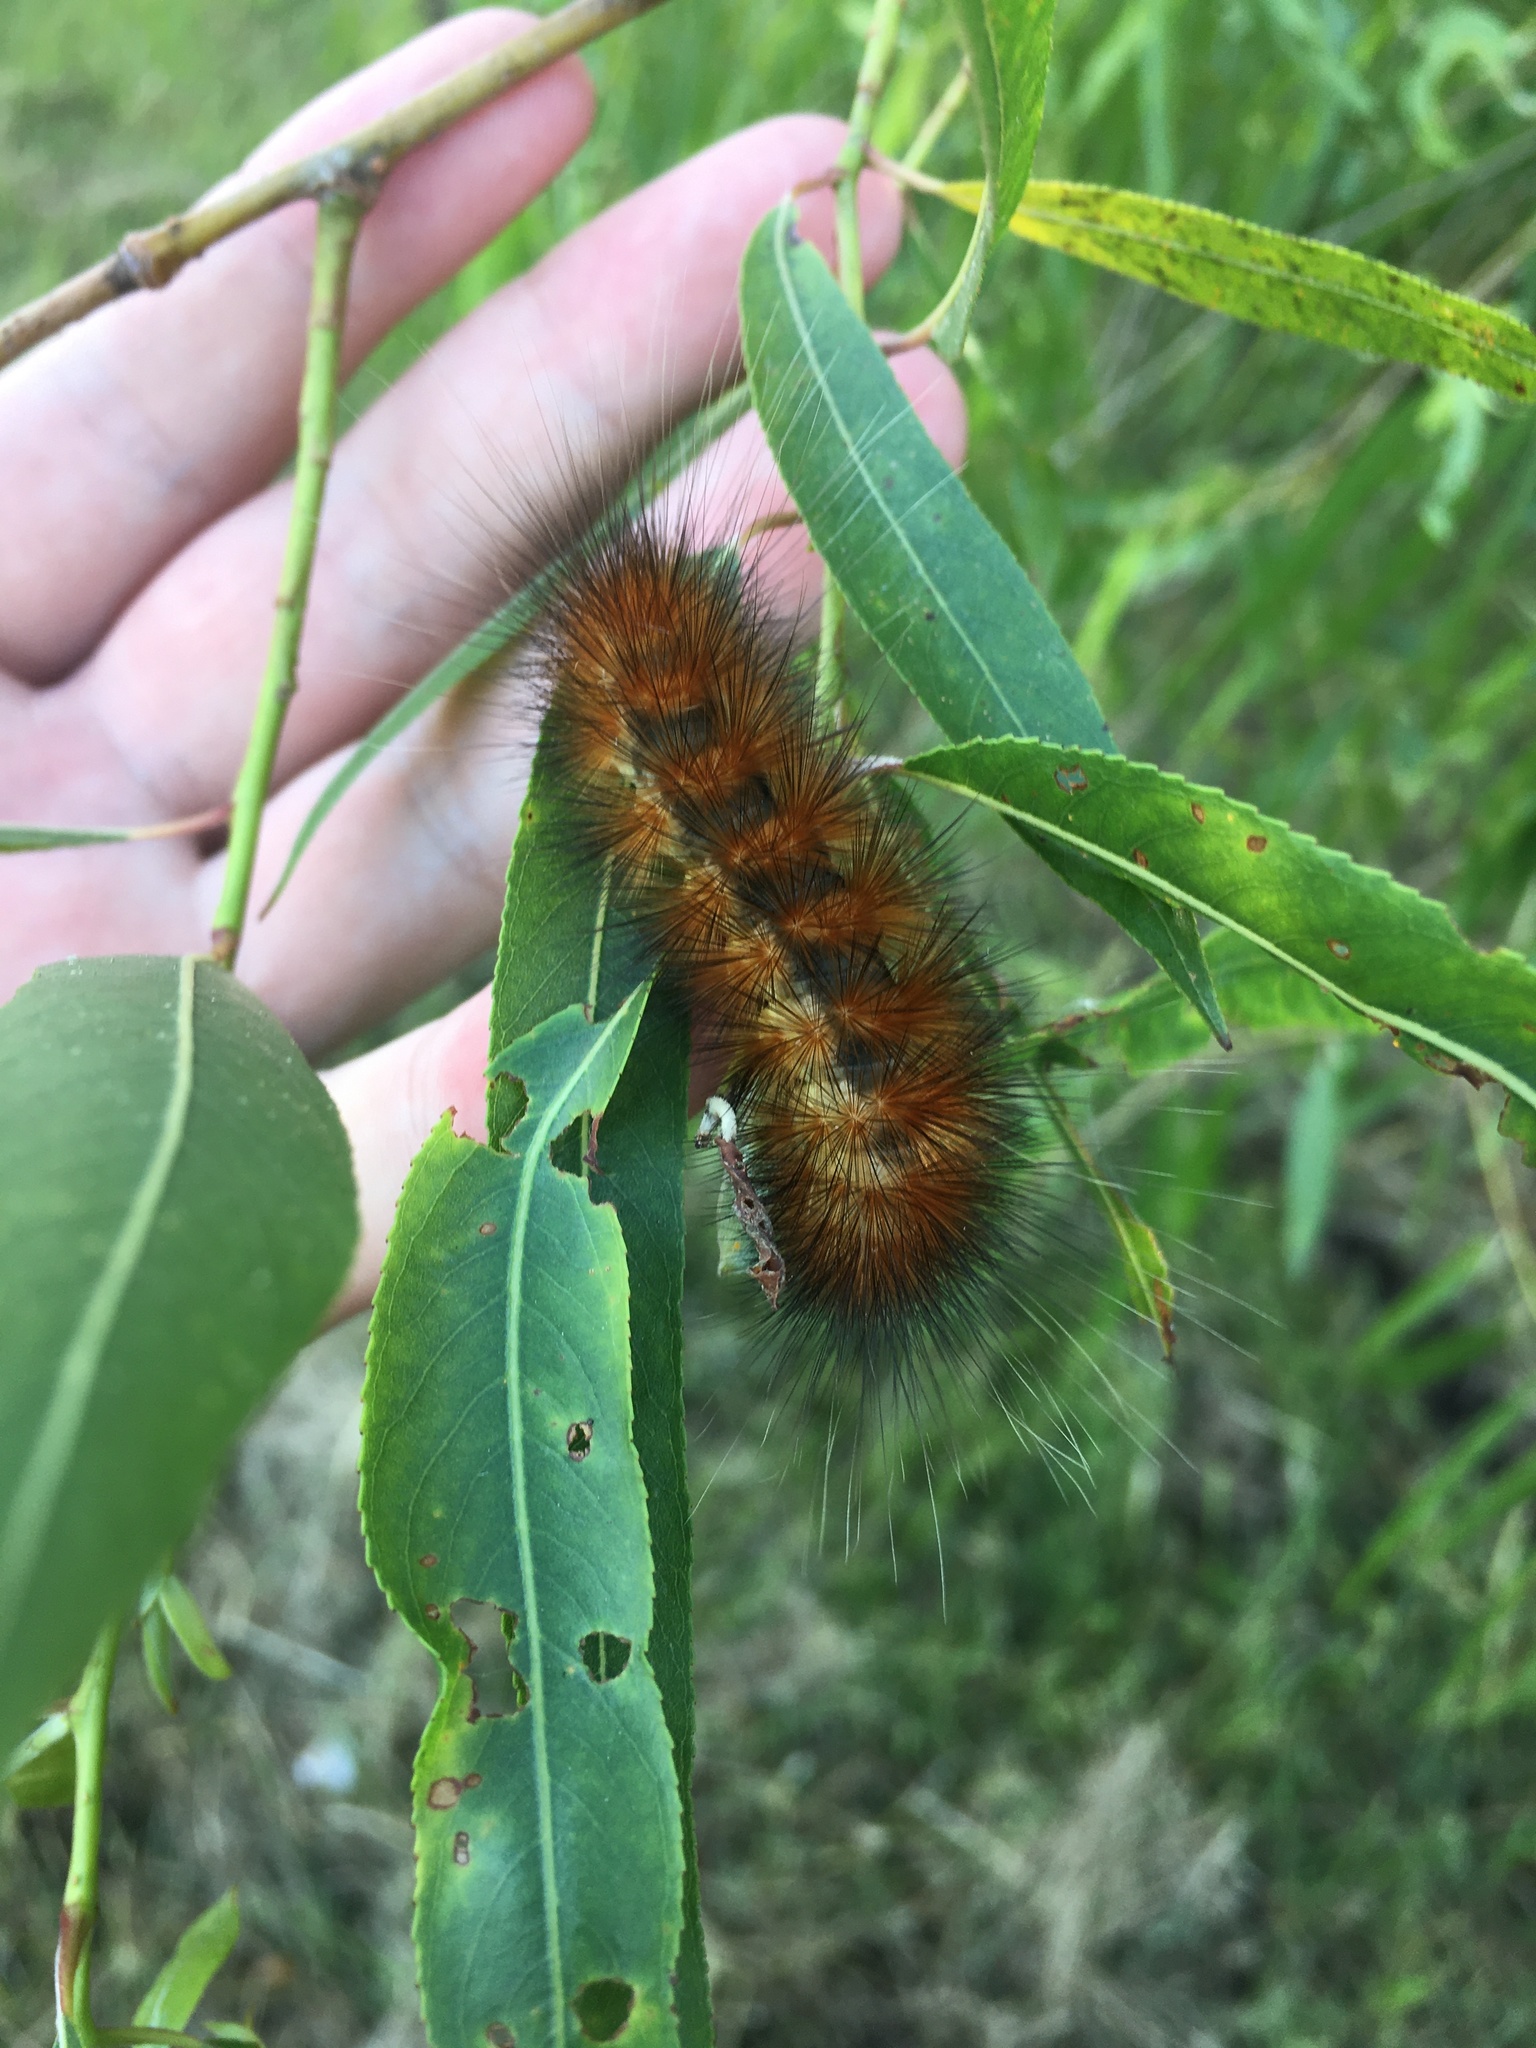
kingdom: Animalia
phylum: Arthropoda
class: Insecta
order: Lepidoptera
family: Erebidae
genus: Estigmene
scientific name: Estigmene acrea
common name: Salt marsh moth
